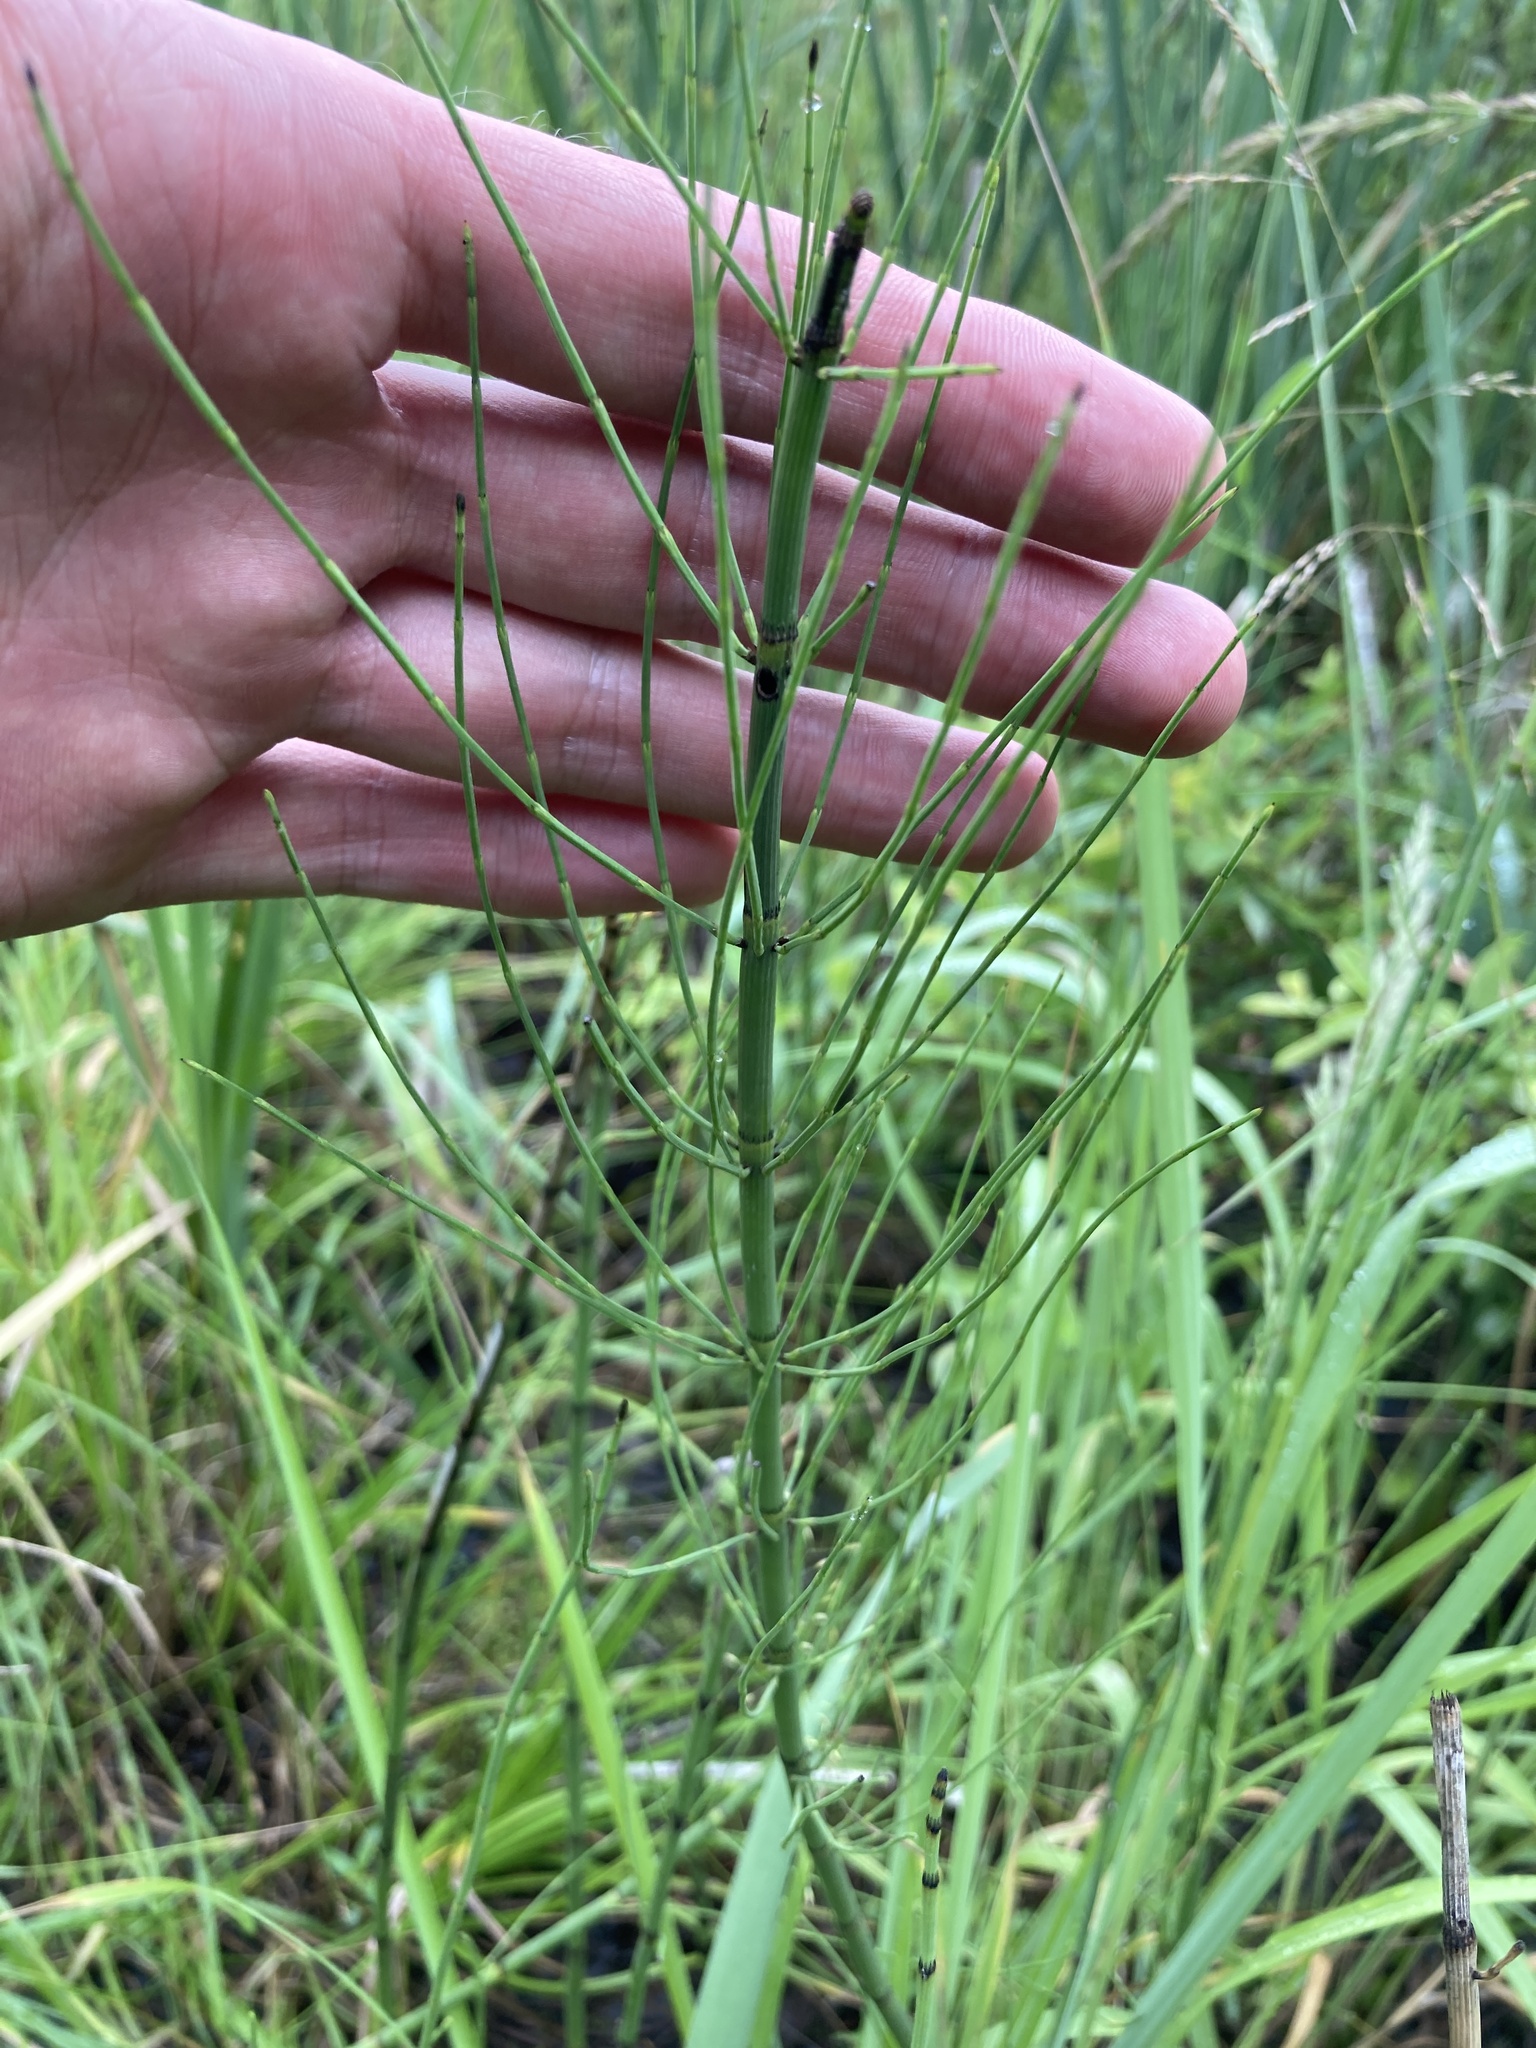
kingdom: Plantae
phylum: Tracheophyta
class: Polypodiopsida
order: Equisetales
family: Equisetaceae
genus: Equisetum
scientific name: Equisetum fluviatile
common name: Water horsetail
